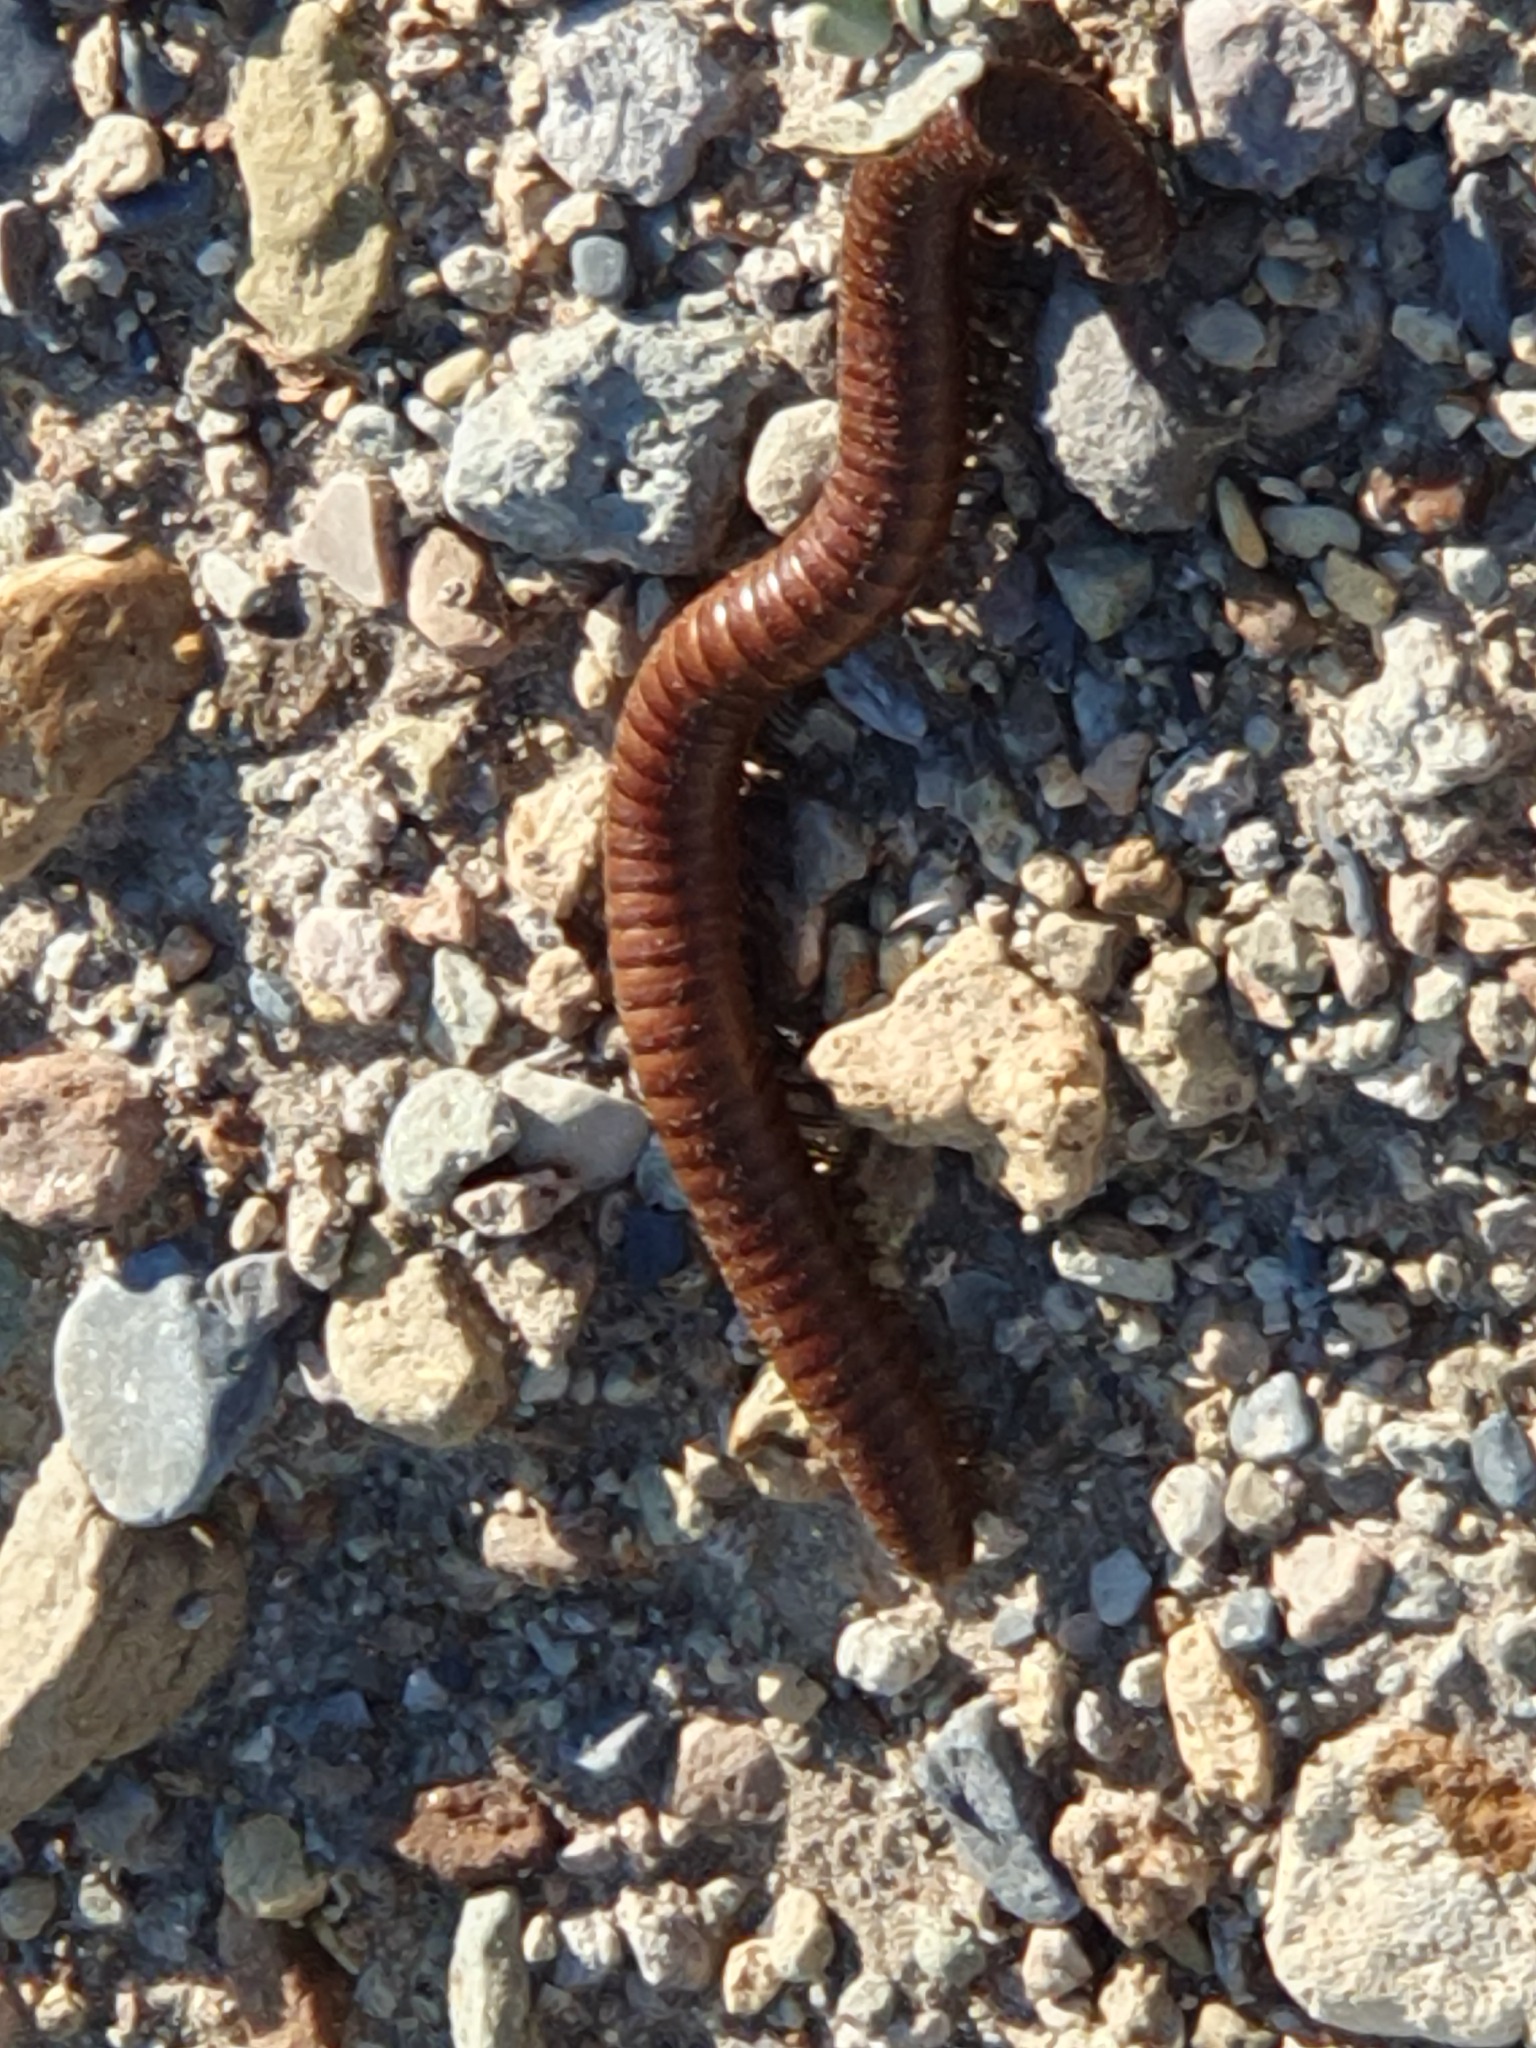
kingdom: Animalia
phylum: Arthropoda
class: Diplopoda
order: Spirostreptida
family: Spirostreptidae
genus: Orthoporus
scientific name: Orthoporus ornatus
